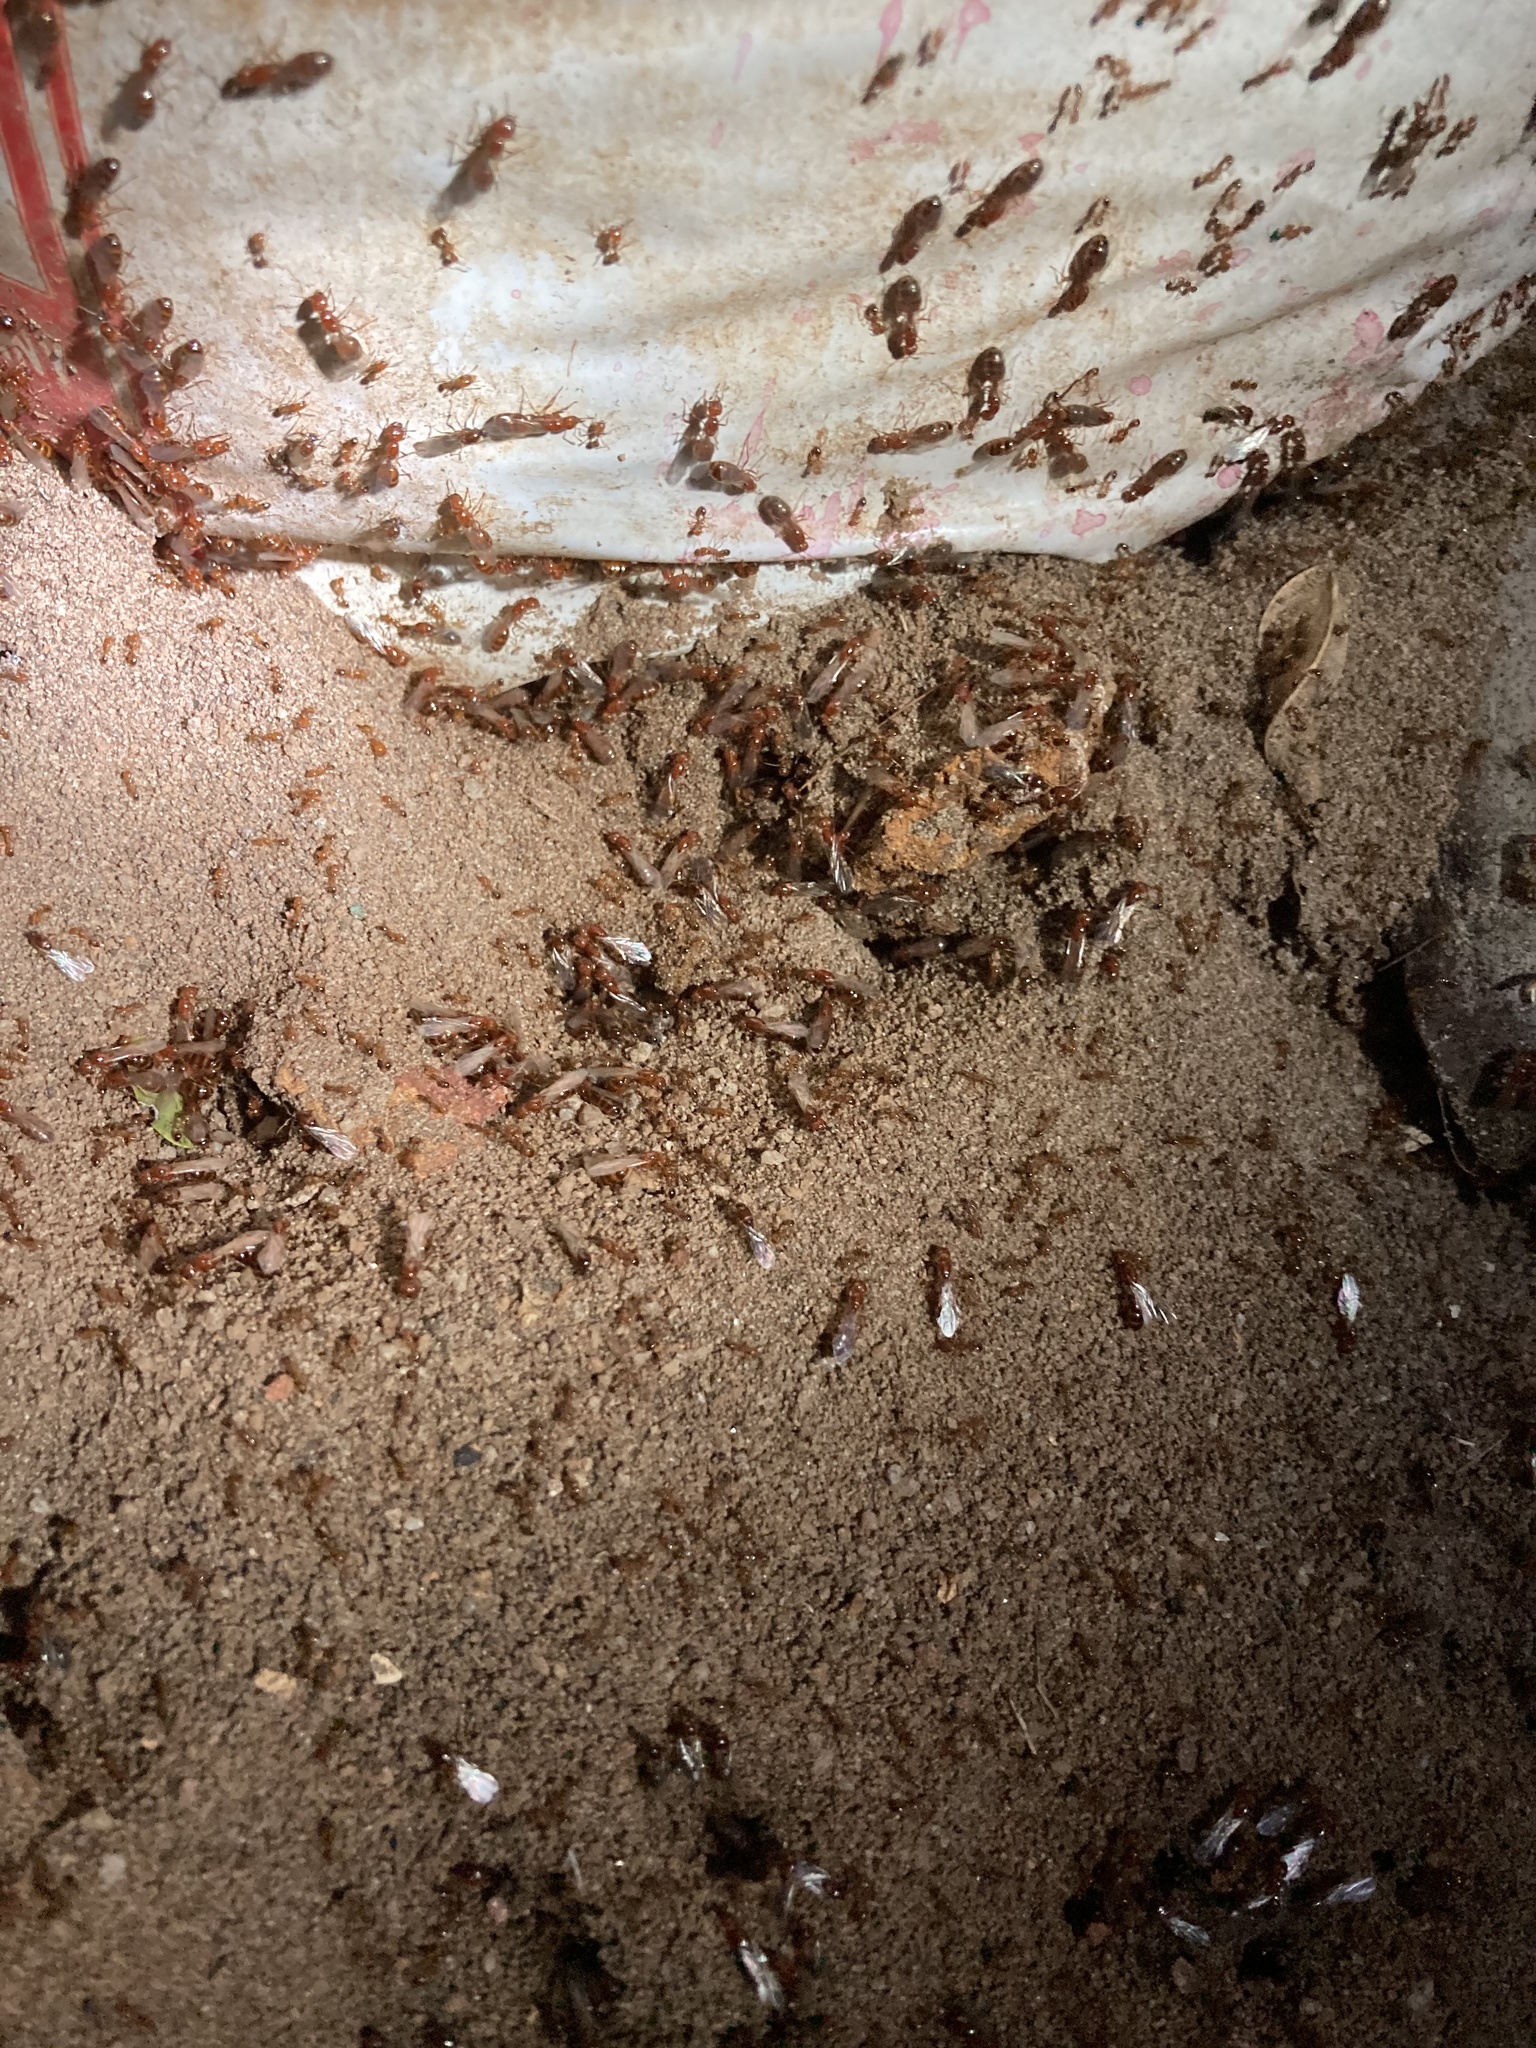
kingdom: Animalia
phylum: Arthropoda
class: Insecta
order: Hymenoptera
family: Formicidae
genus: Solenopsis
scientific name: Solenopsis geminata
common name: Tropical fire ant
